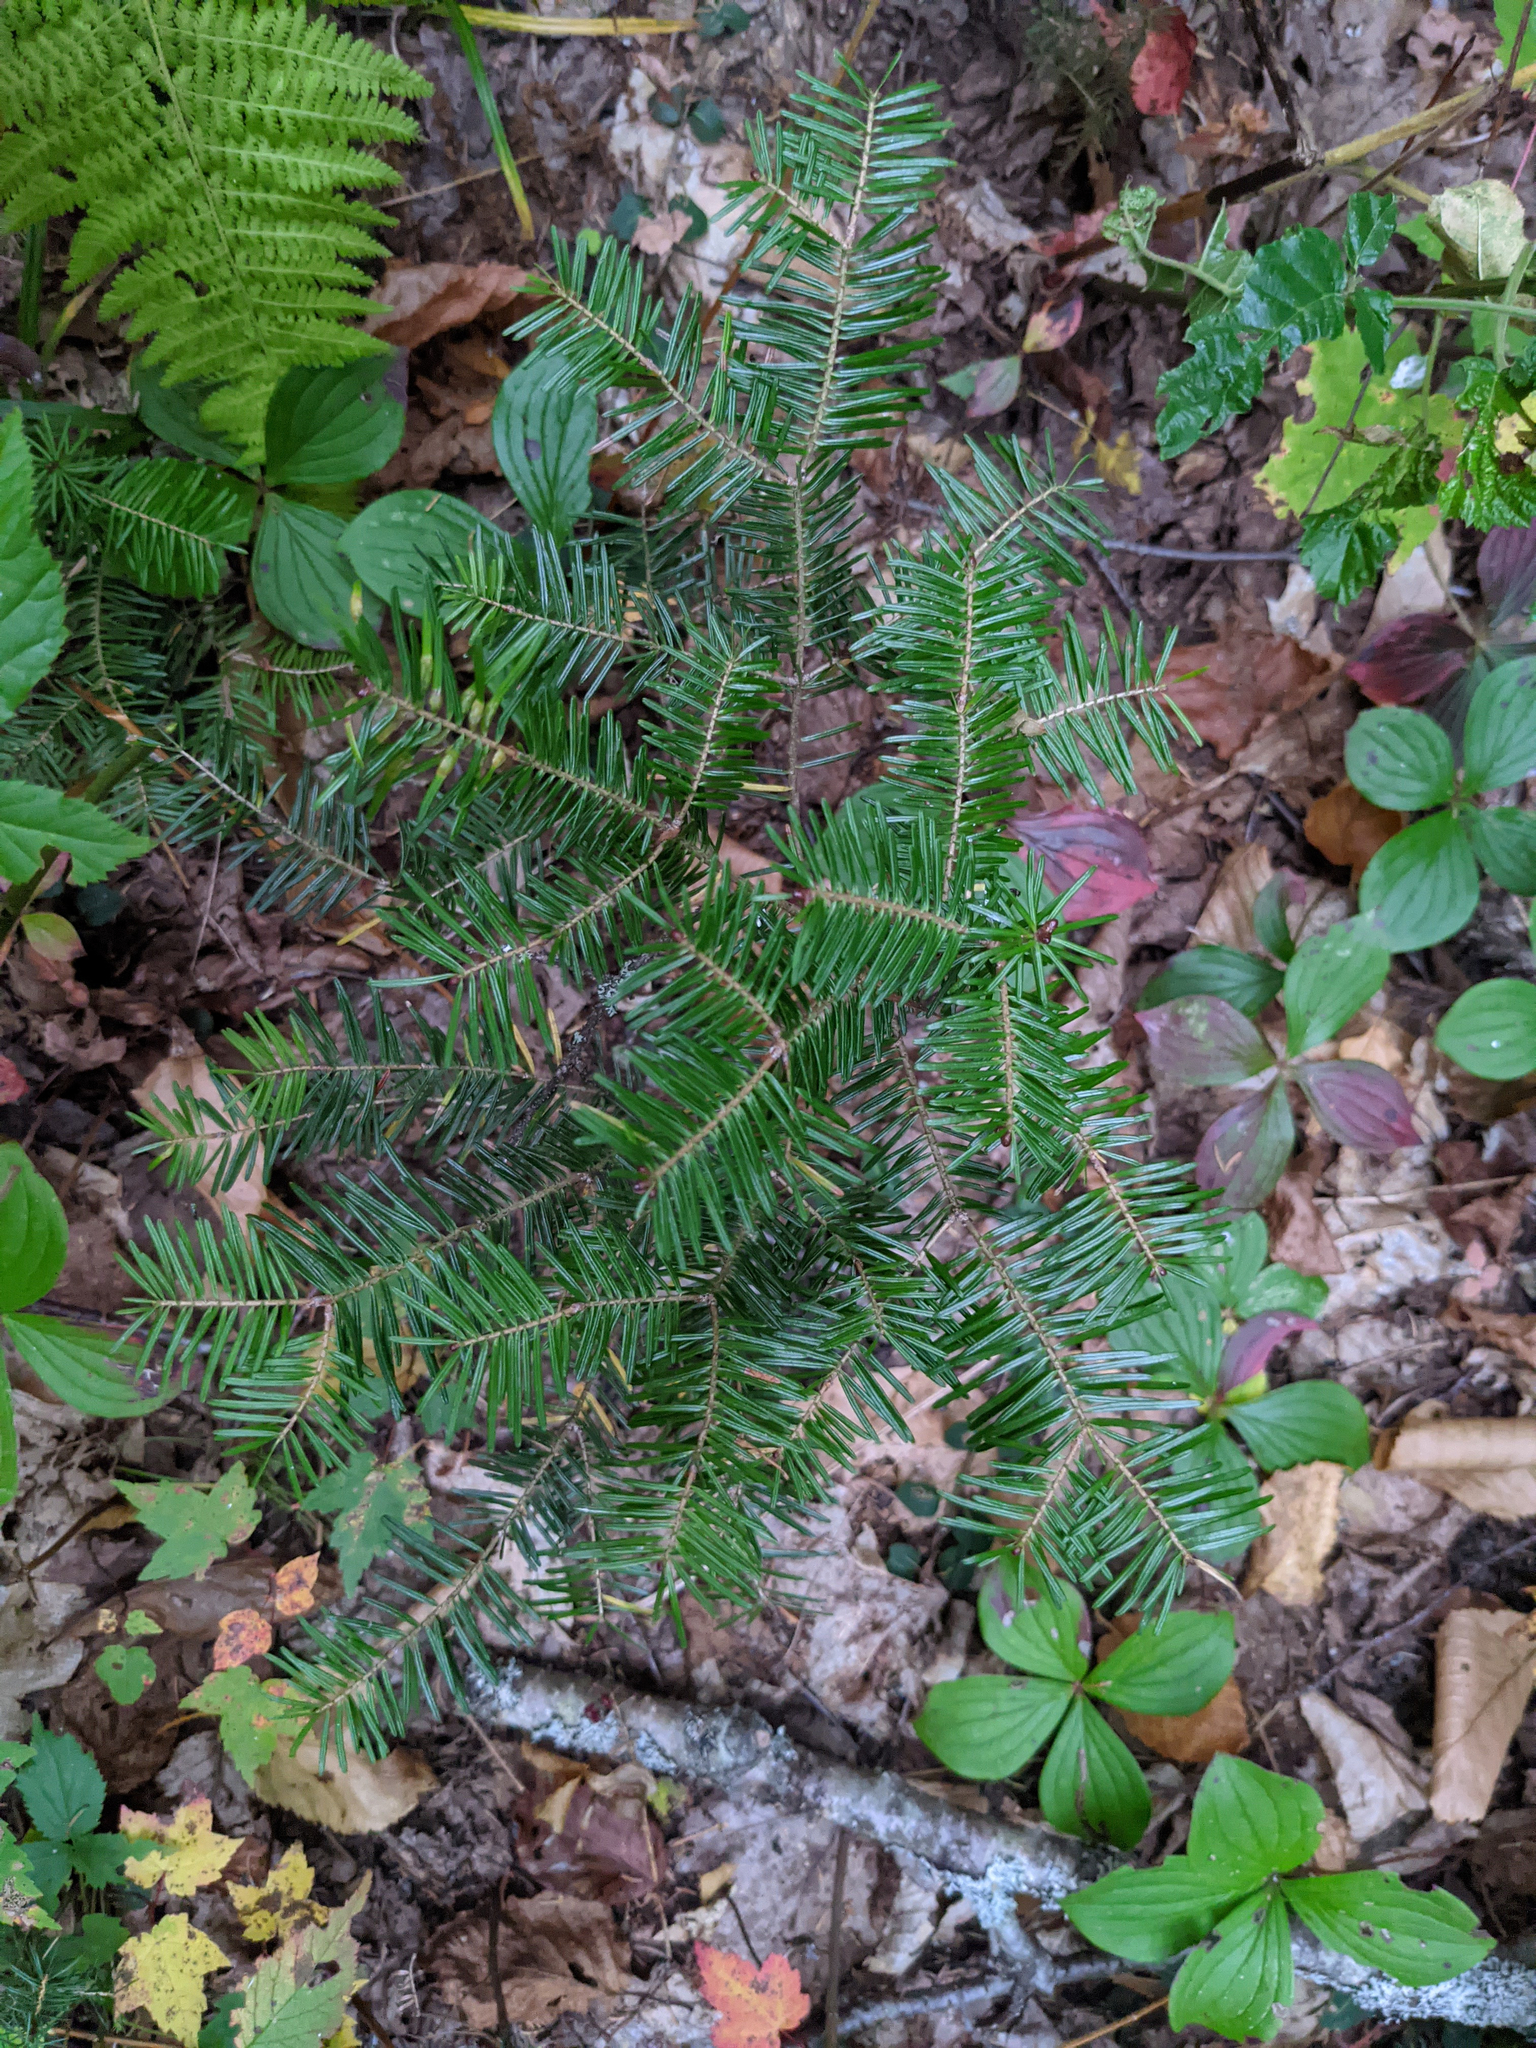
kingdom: Plantae
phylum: Tracheophyta
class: Pinopsida
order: Pinales
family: Pinaceae
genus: Abies
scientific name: Abies balsamea
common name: Balsam fir
